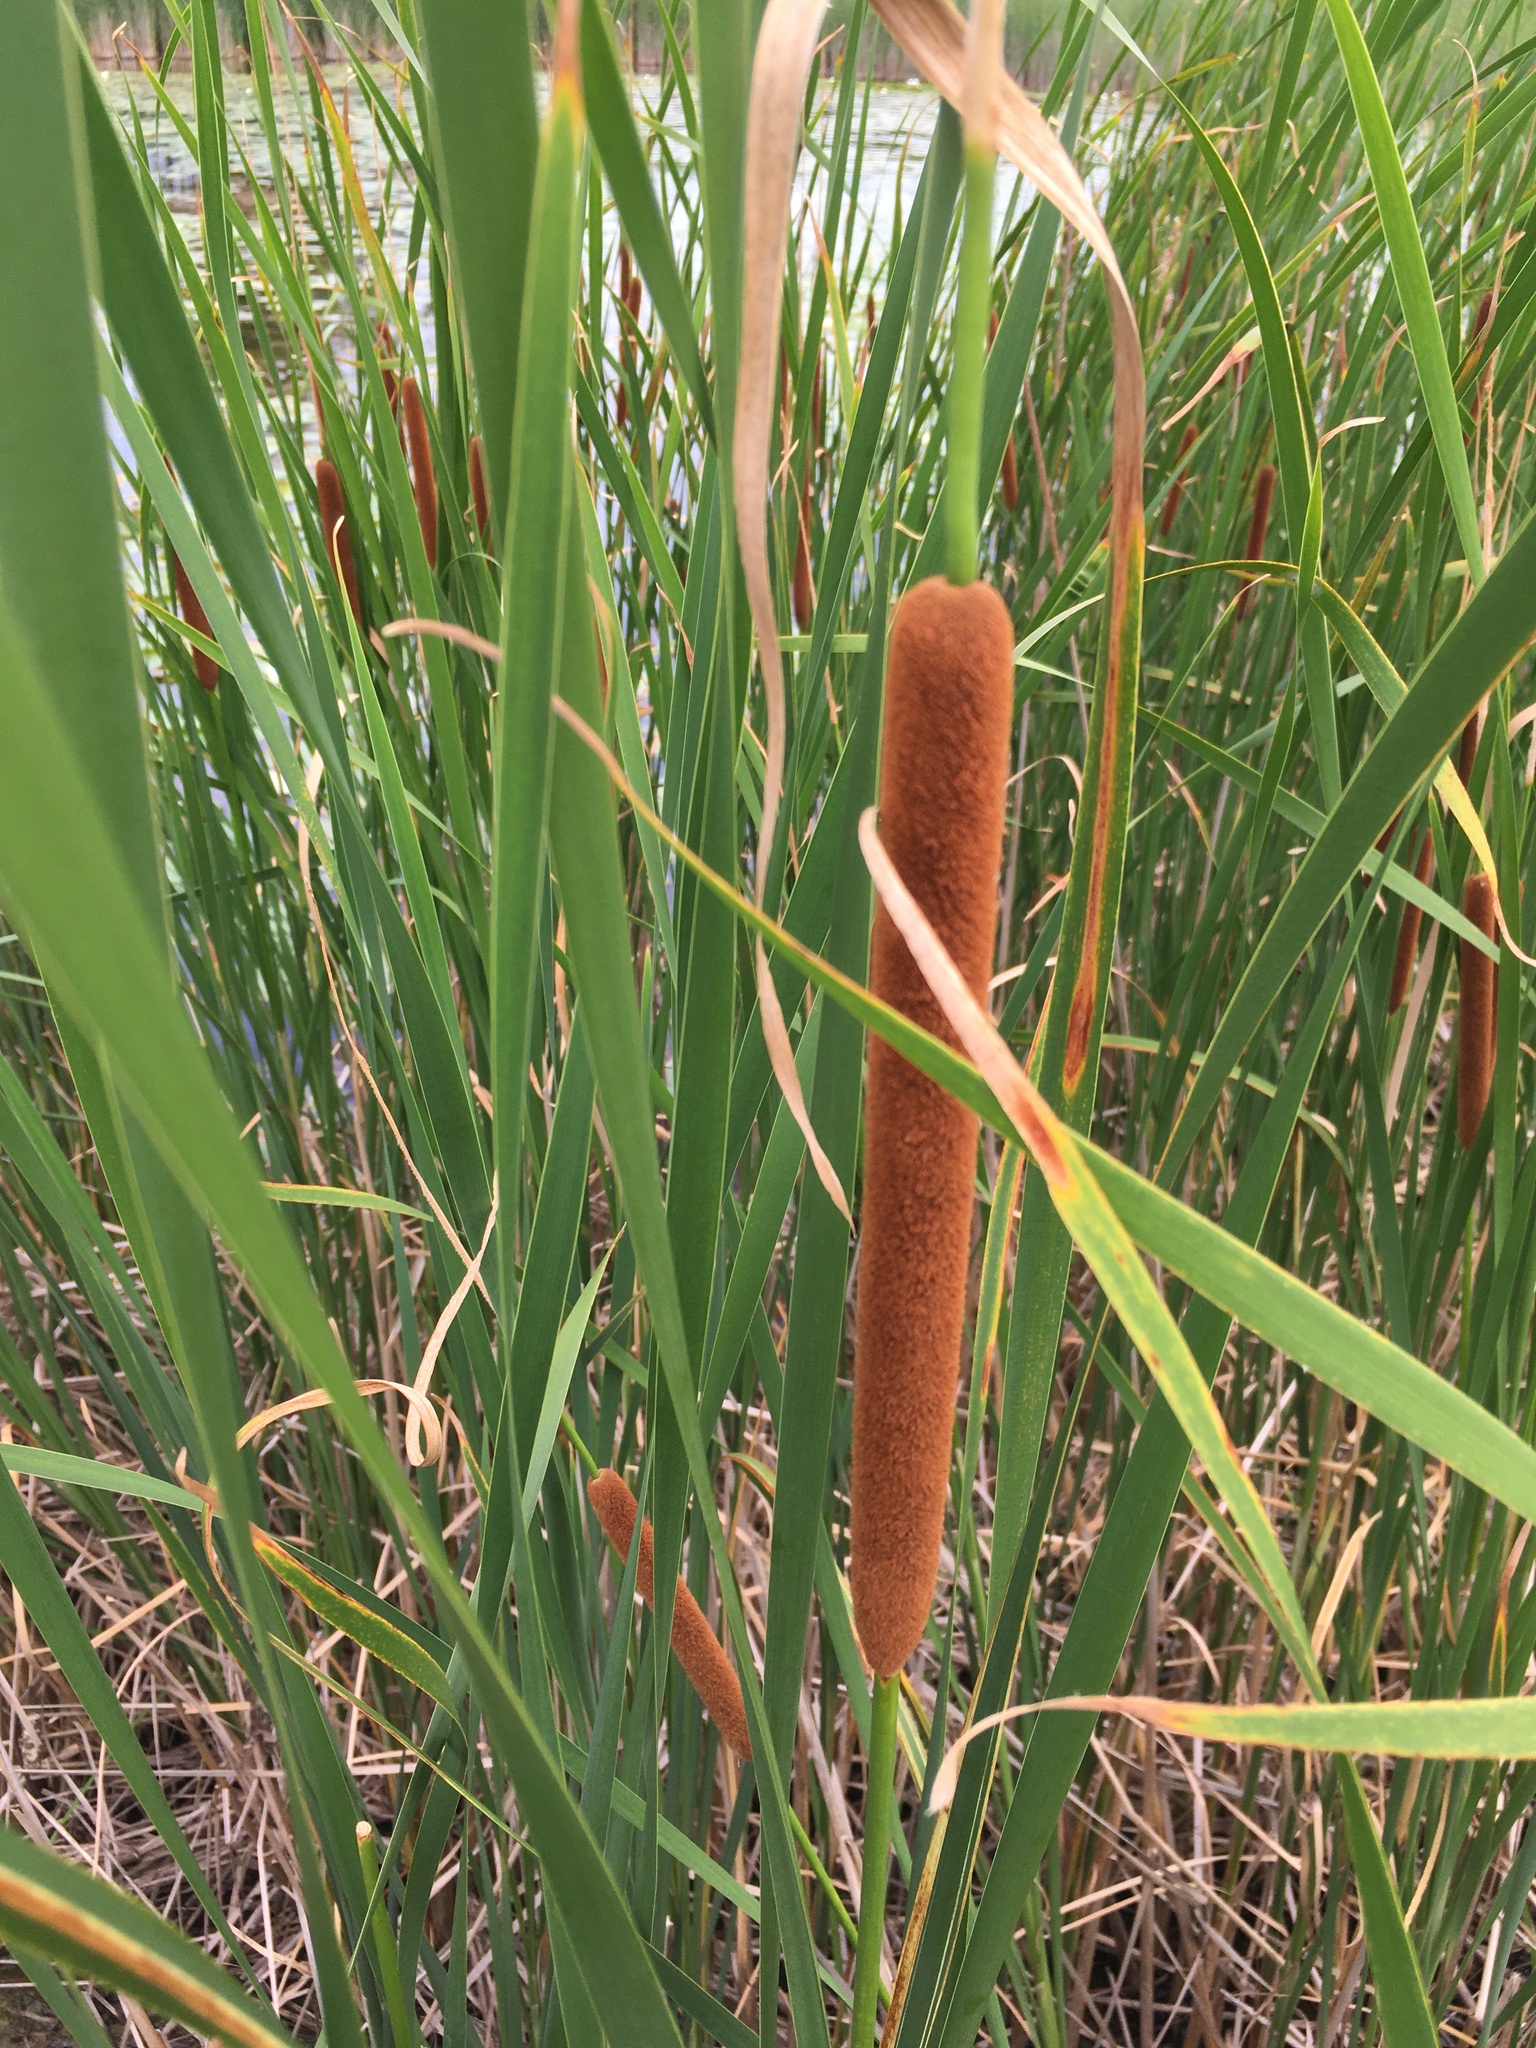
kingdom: Plantae
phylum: Tracheophyta
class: Liliopsida
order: Poales
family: Typhaceae
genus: Typha
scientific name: Typha angustifolia
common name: Lesser bulrush
